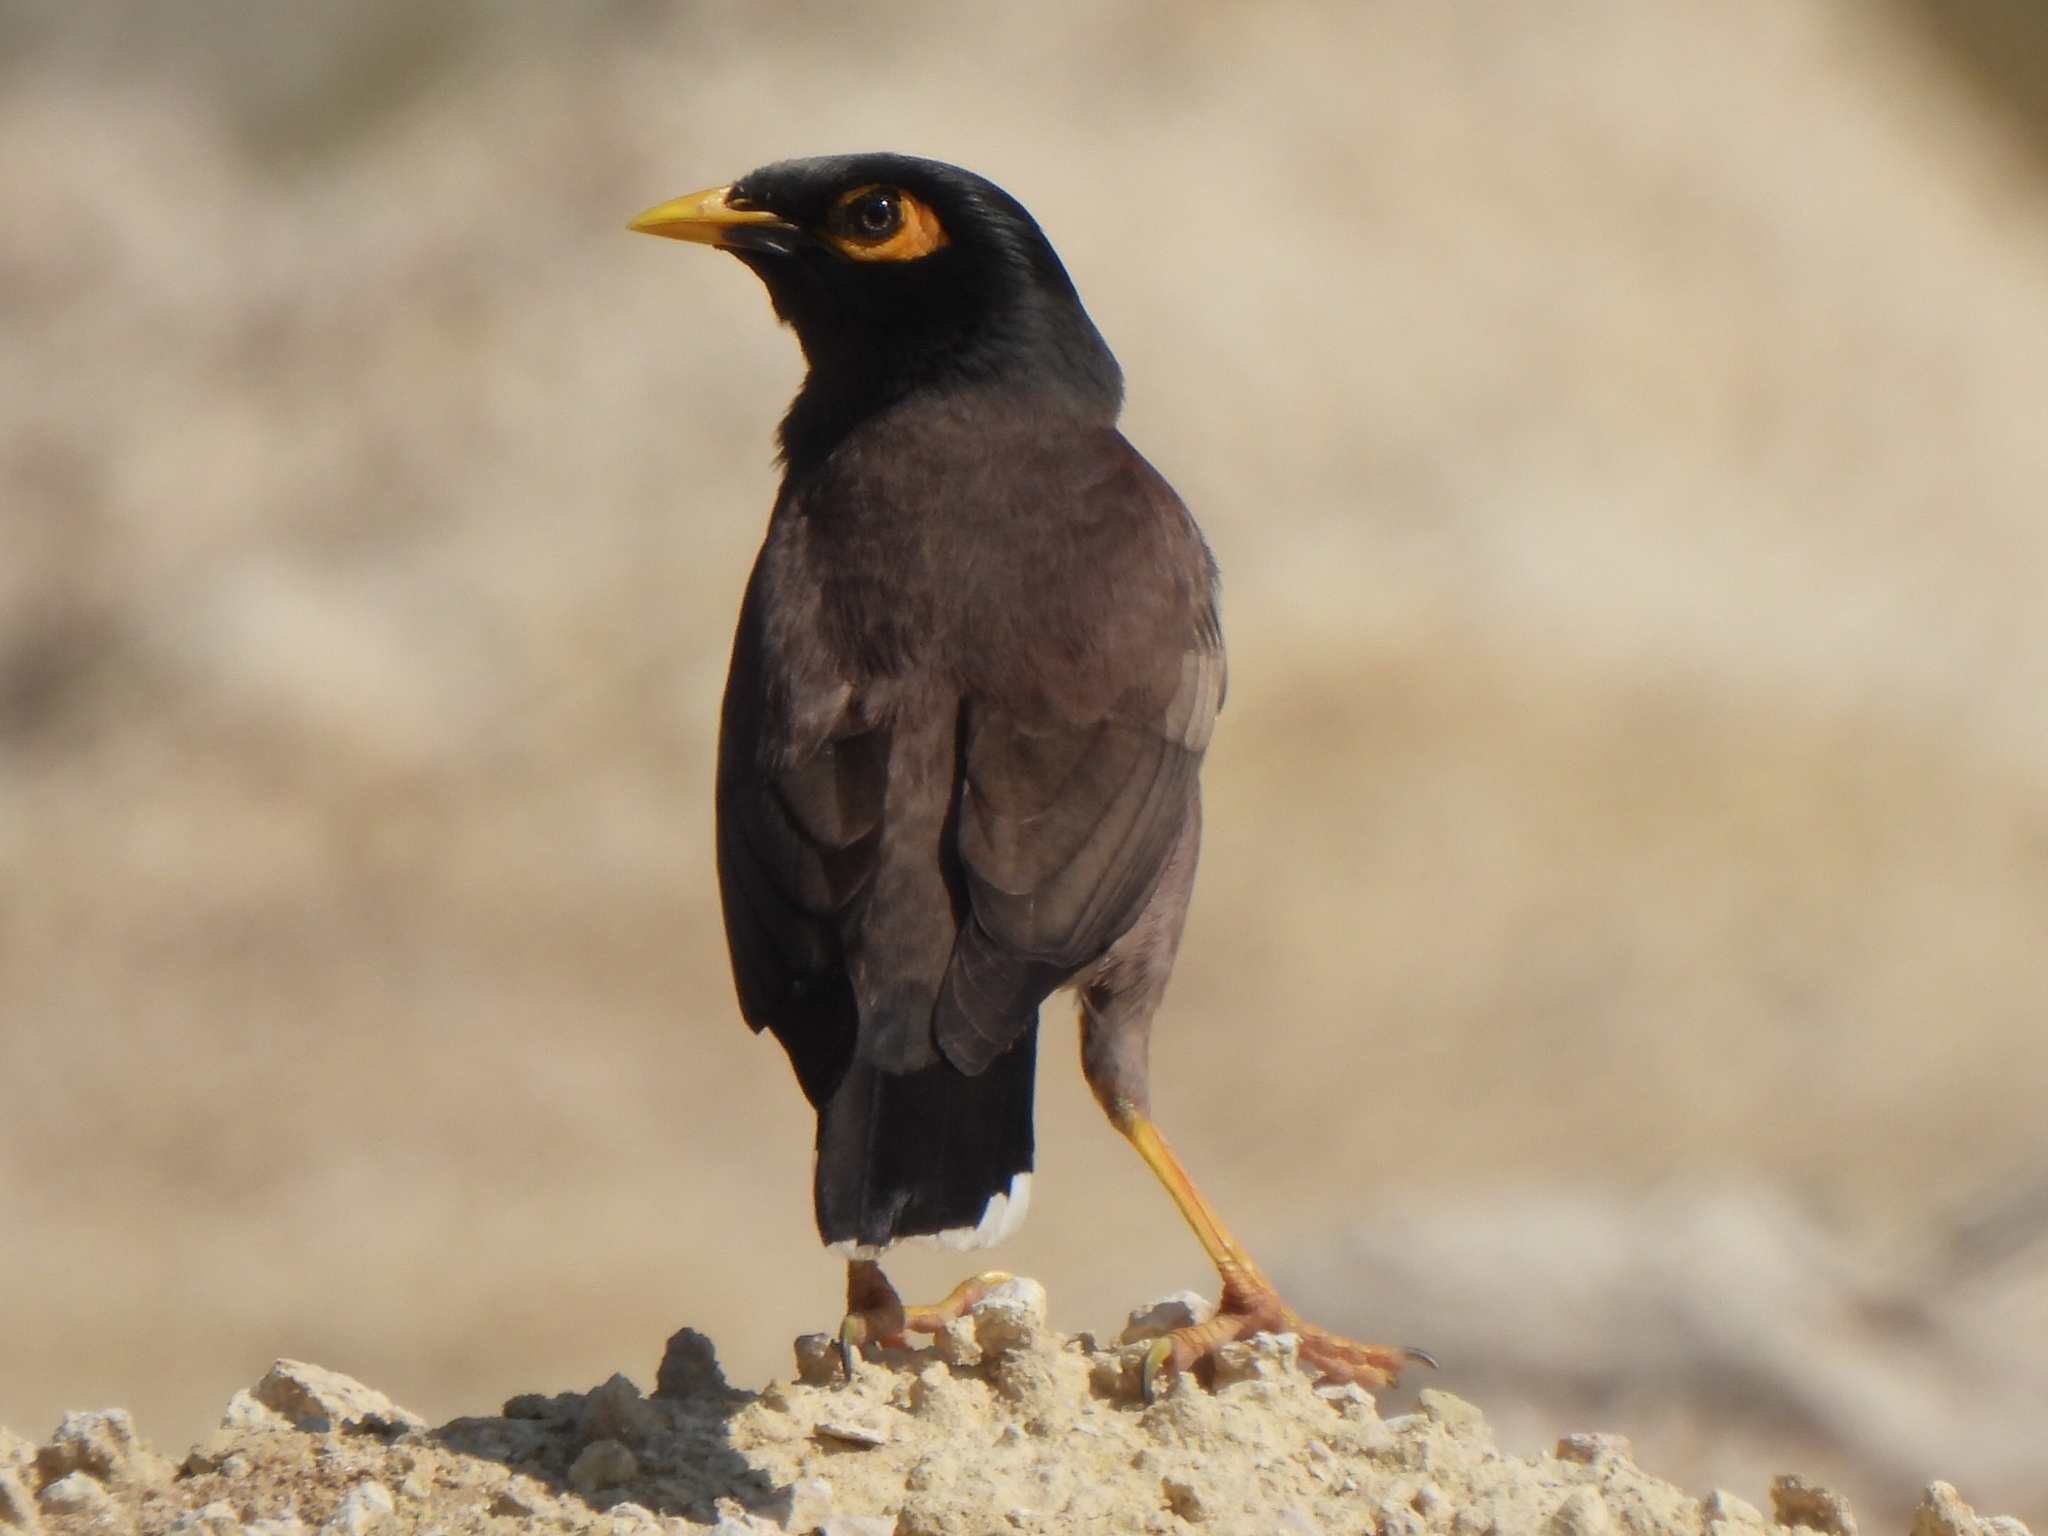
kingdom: Animalia
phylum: Chordata
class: Aves
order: Passeriformes
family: Sturnidae
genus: Acridotheres
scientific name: Acridotheres tristis
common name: Common myna
